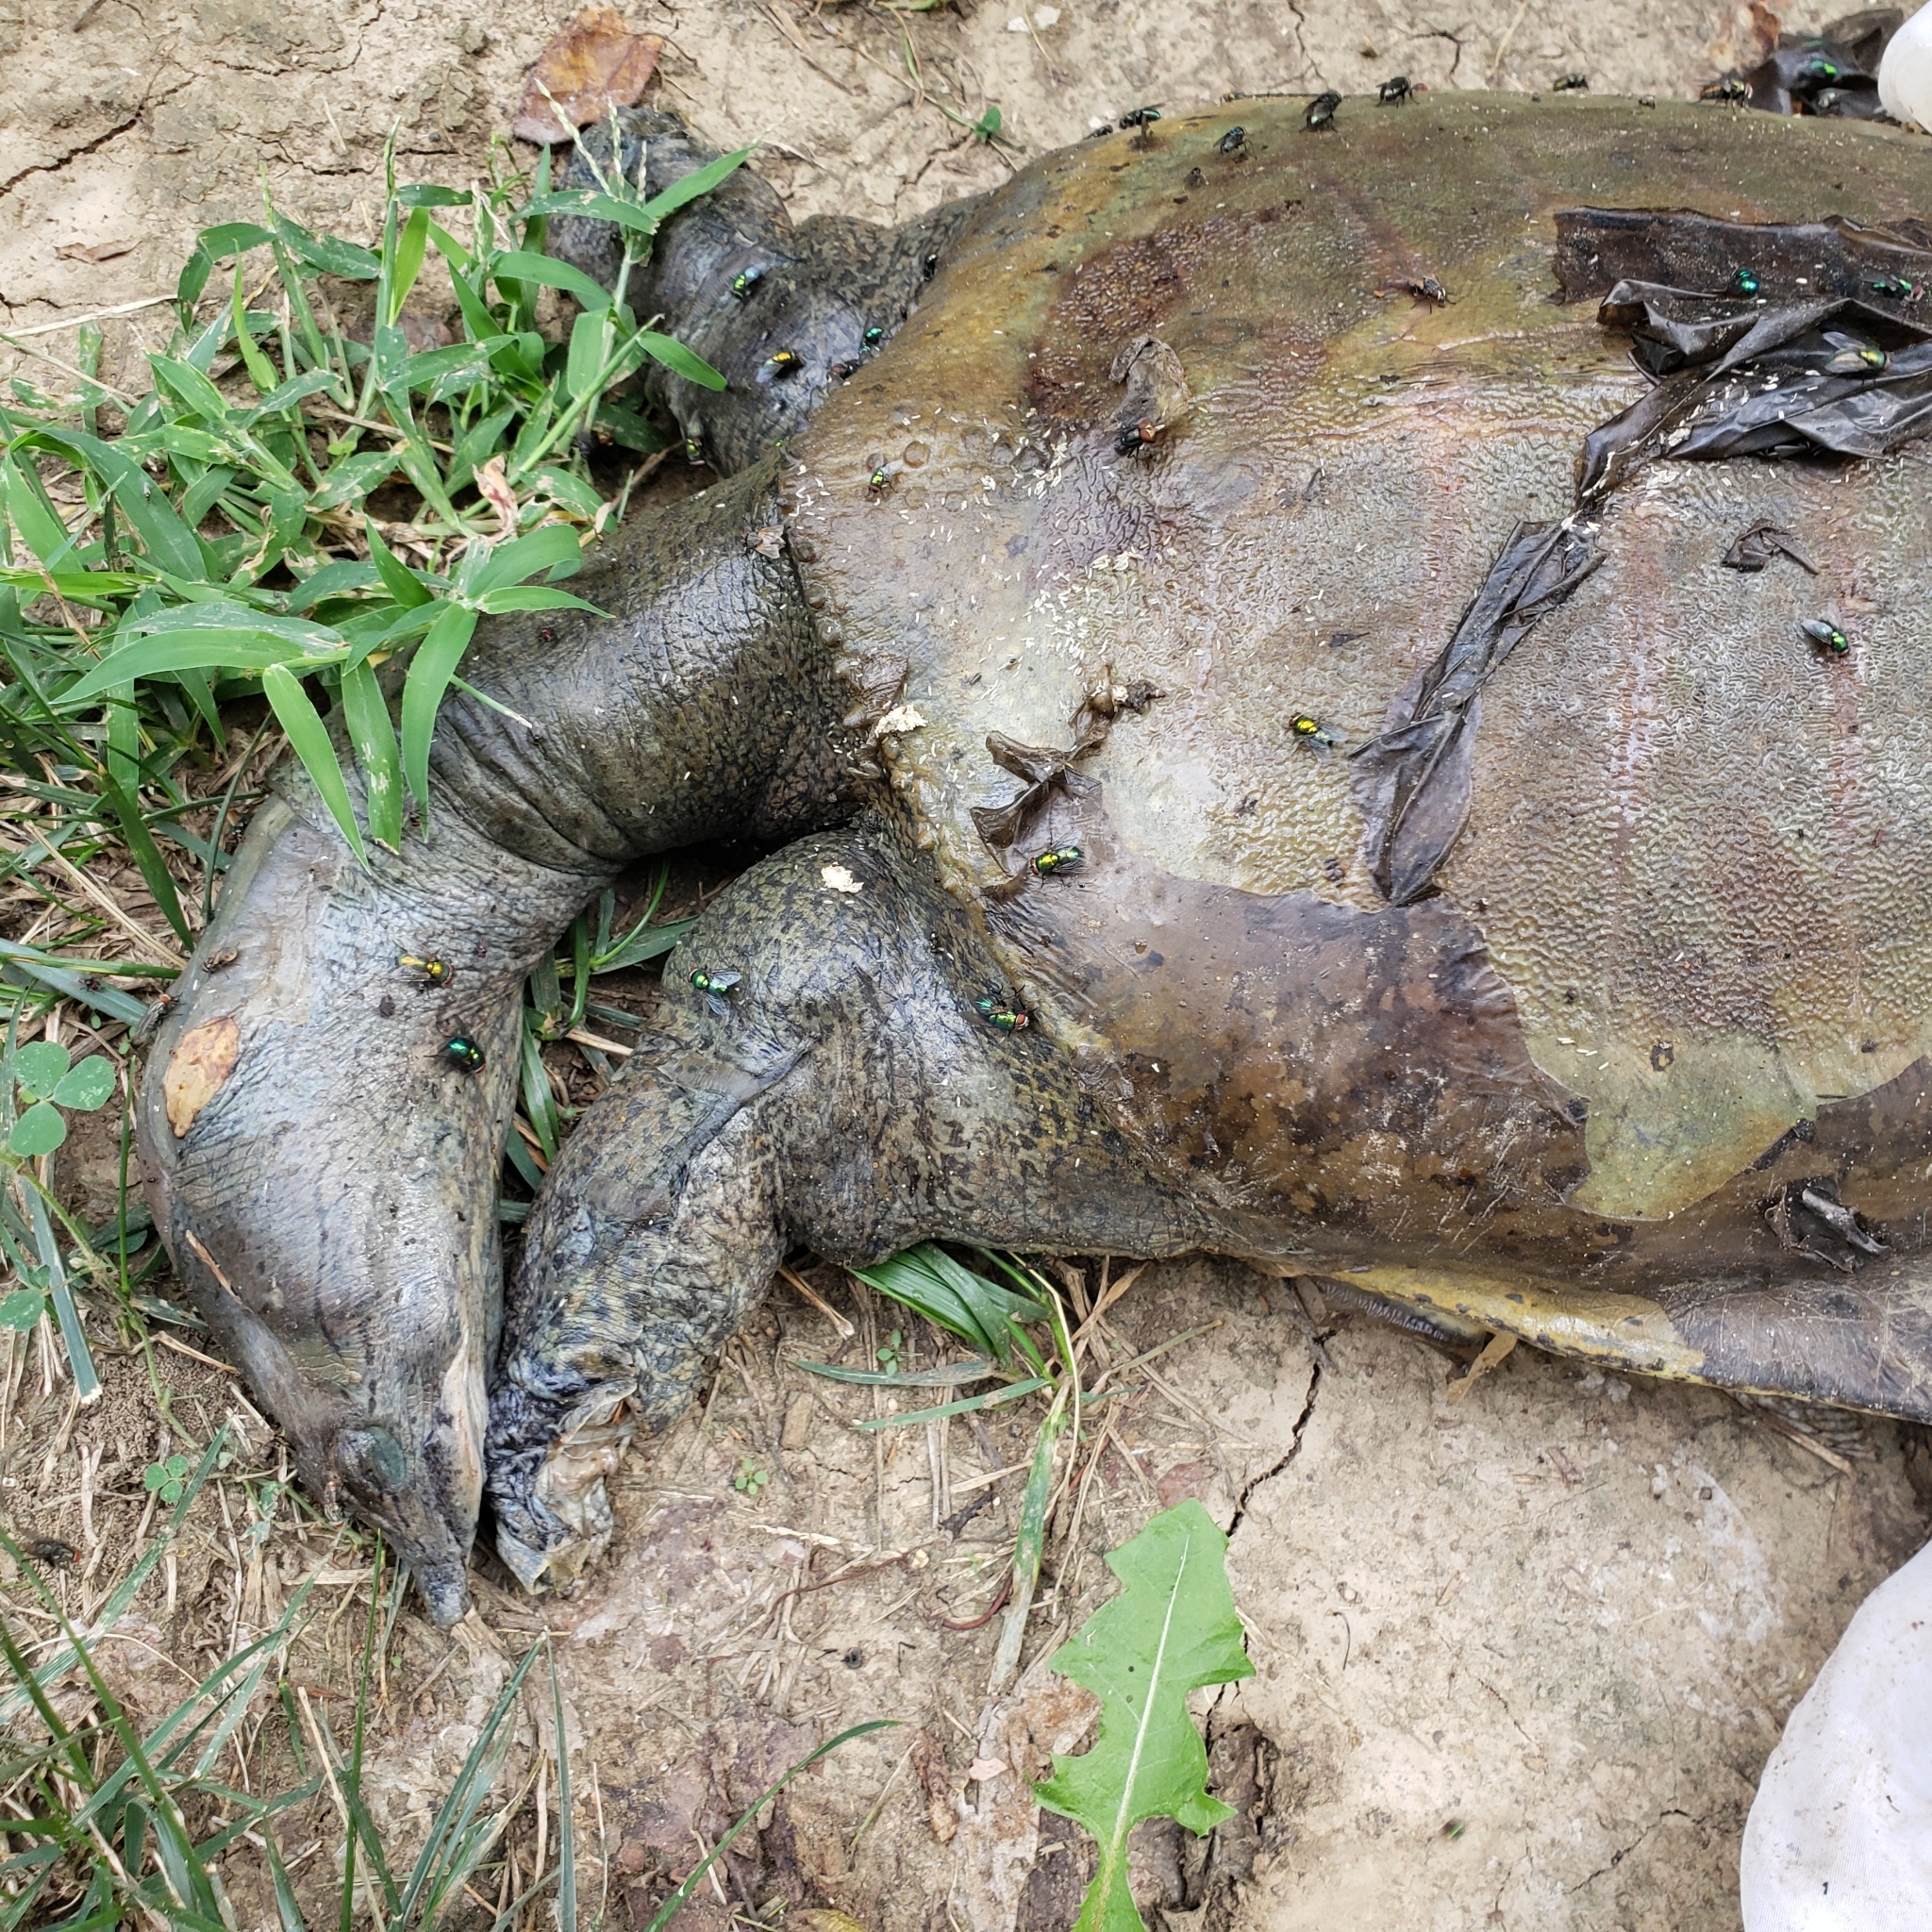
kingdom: Animalia
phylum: Chordata
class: Testudines
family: Trionychidae
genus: Apalone
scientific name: Apalone spinifera
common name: Spiny softshell turtle
